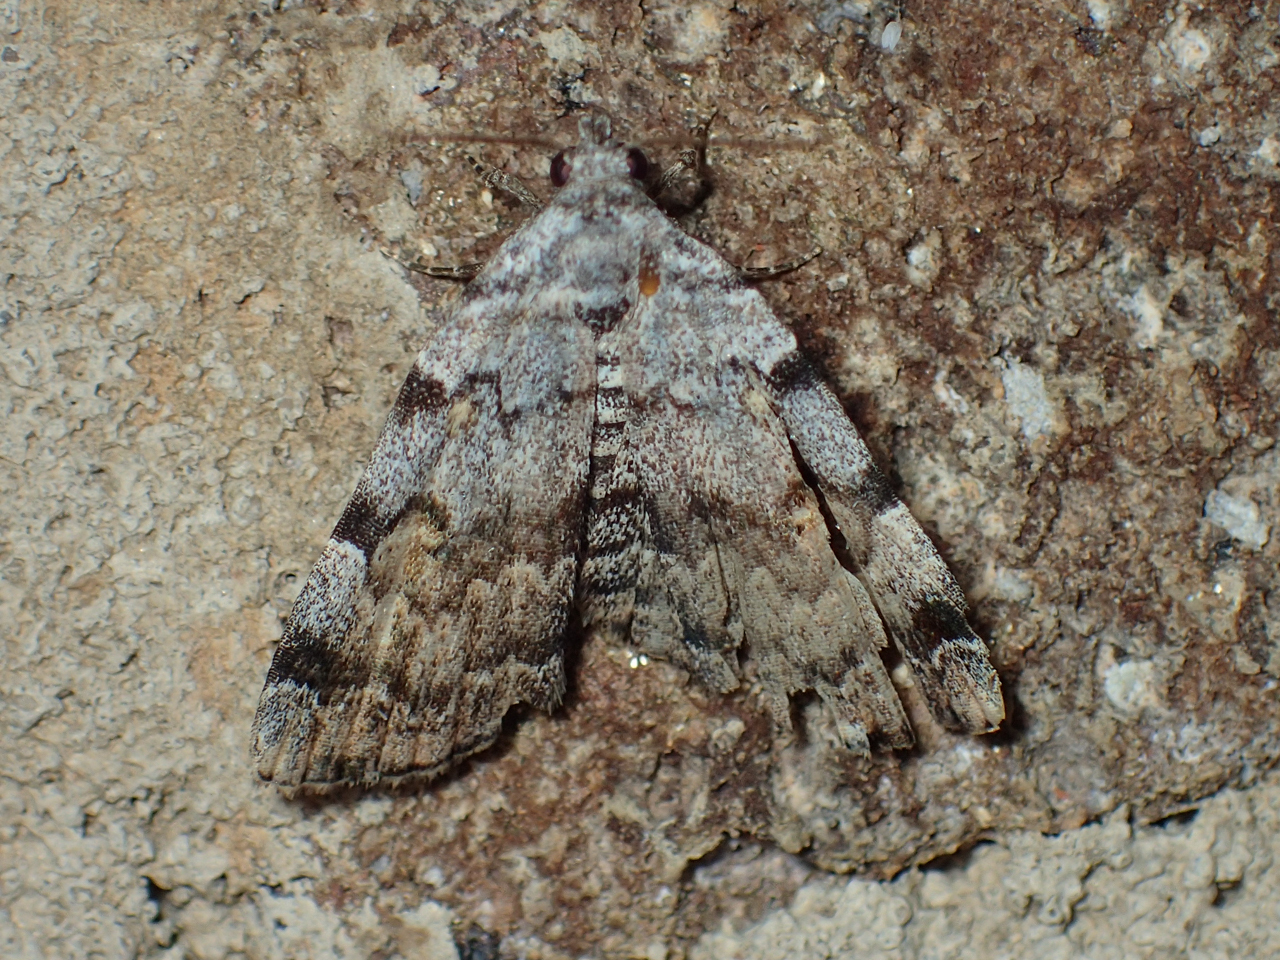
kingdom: Animalia
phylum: Arthropoda
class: Insecta
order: Lepidoptera
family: Erebidae
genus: Idia
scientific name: Idia americalis
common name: American idia moth
